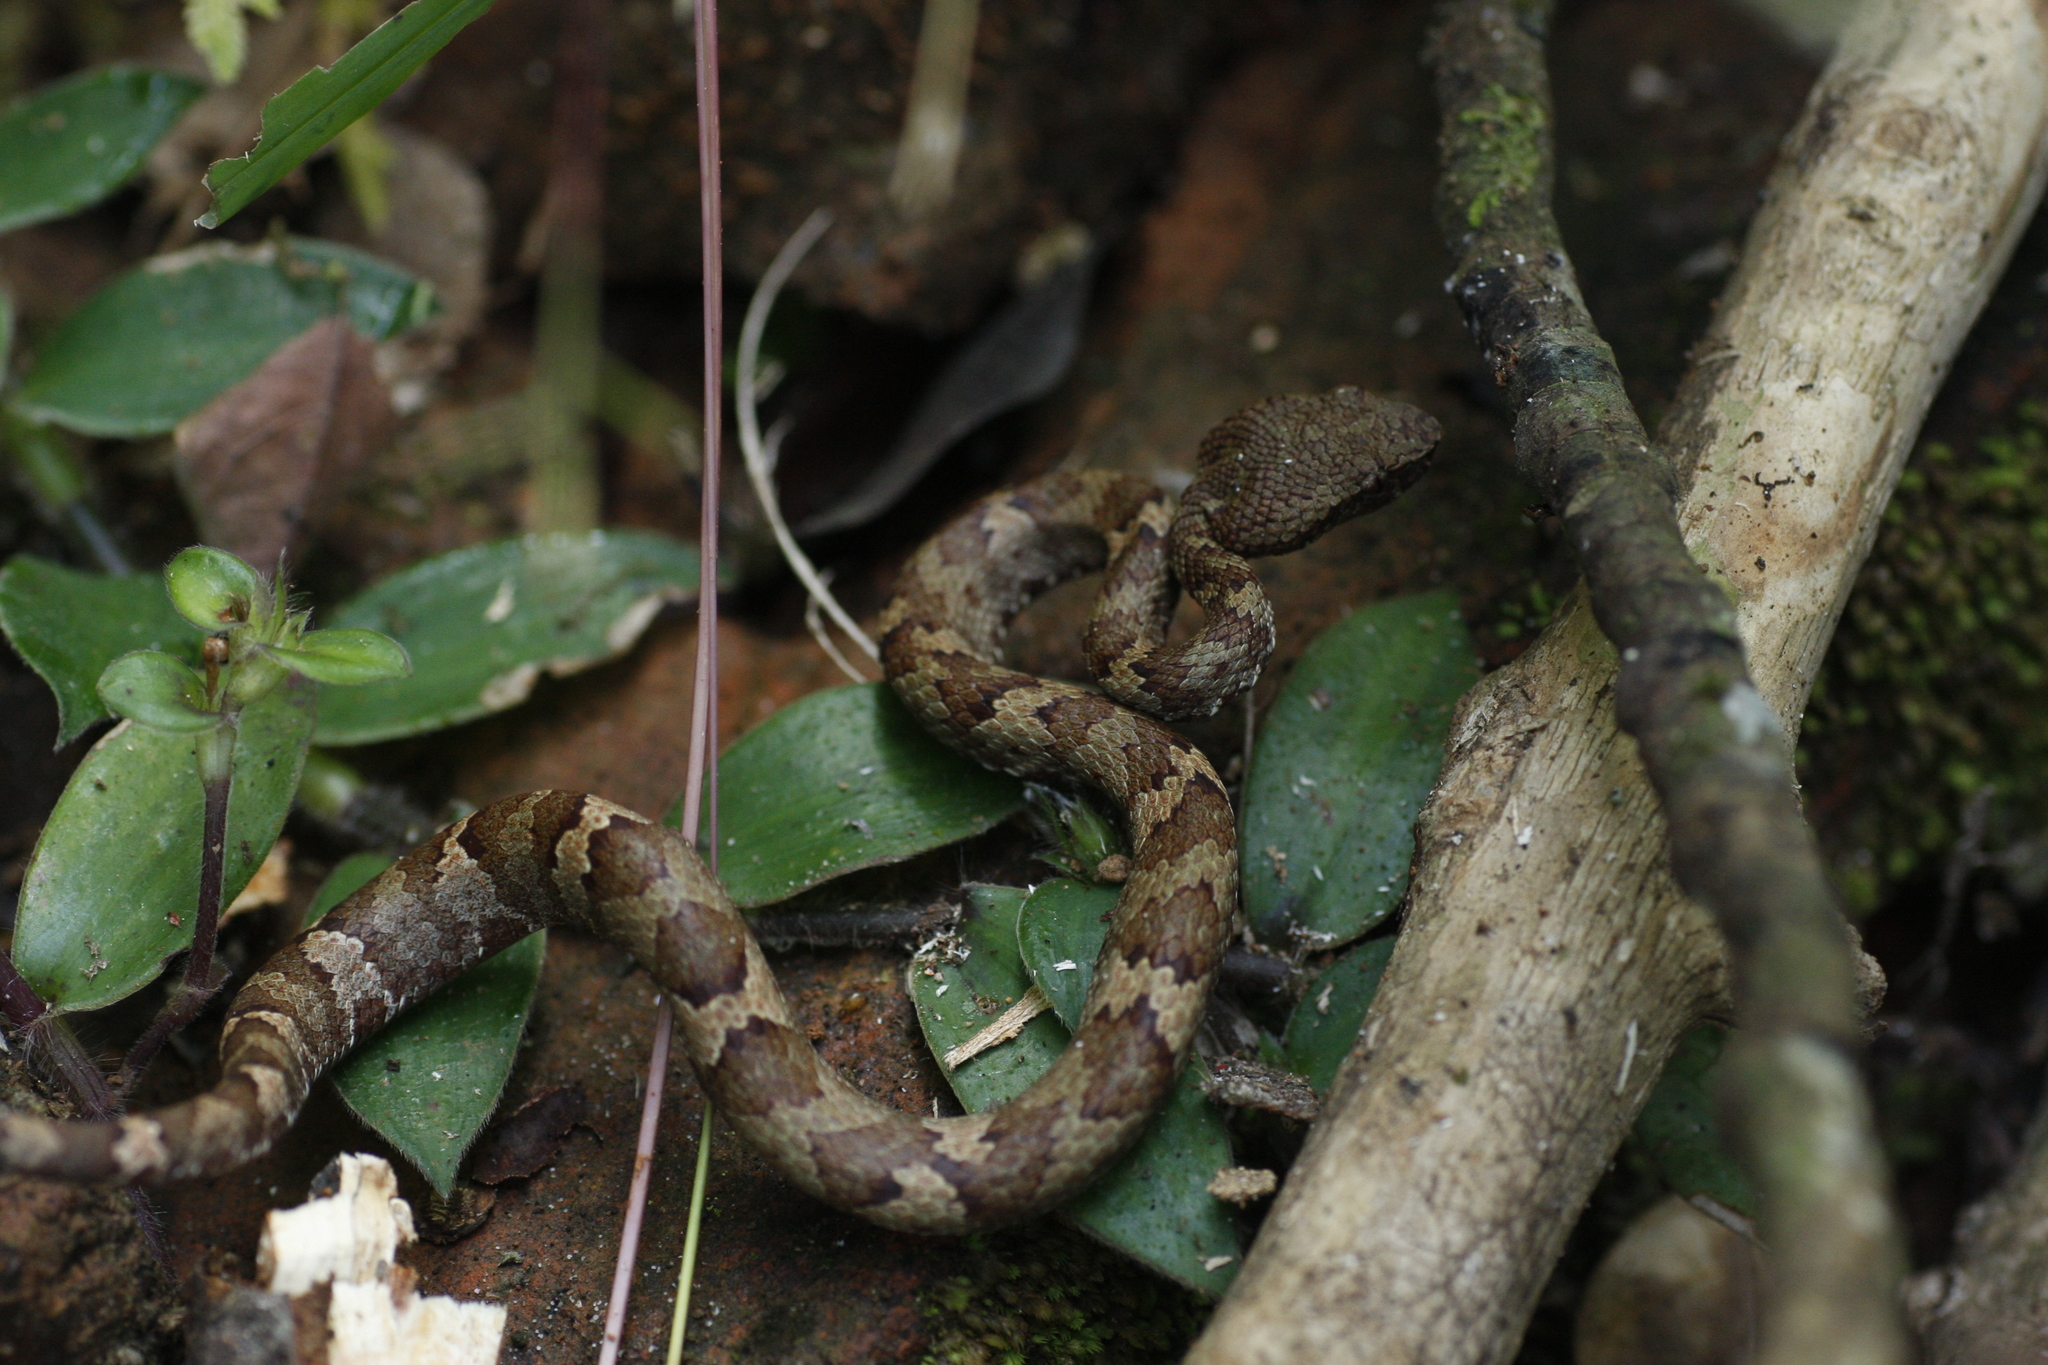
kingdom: Animalia
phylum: Chordata
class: Squamata
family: Viperidae
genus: Craspedocephalus
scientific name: Craspedocephalus malabaricus
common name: Malabarian pit viper
